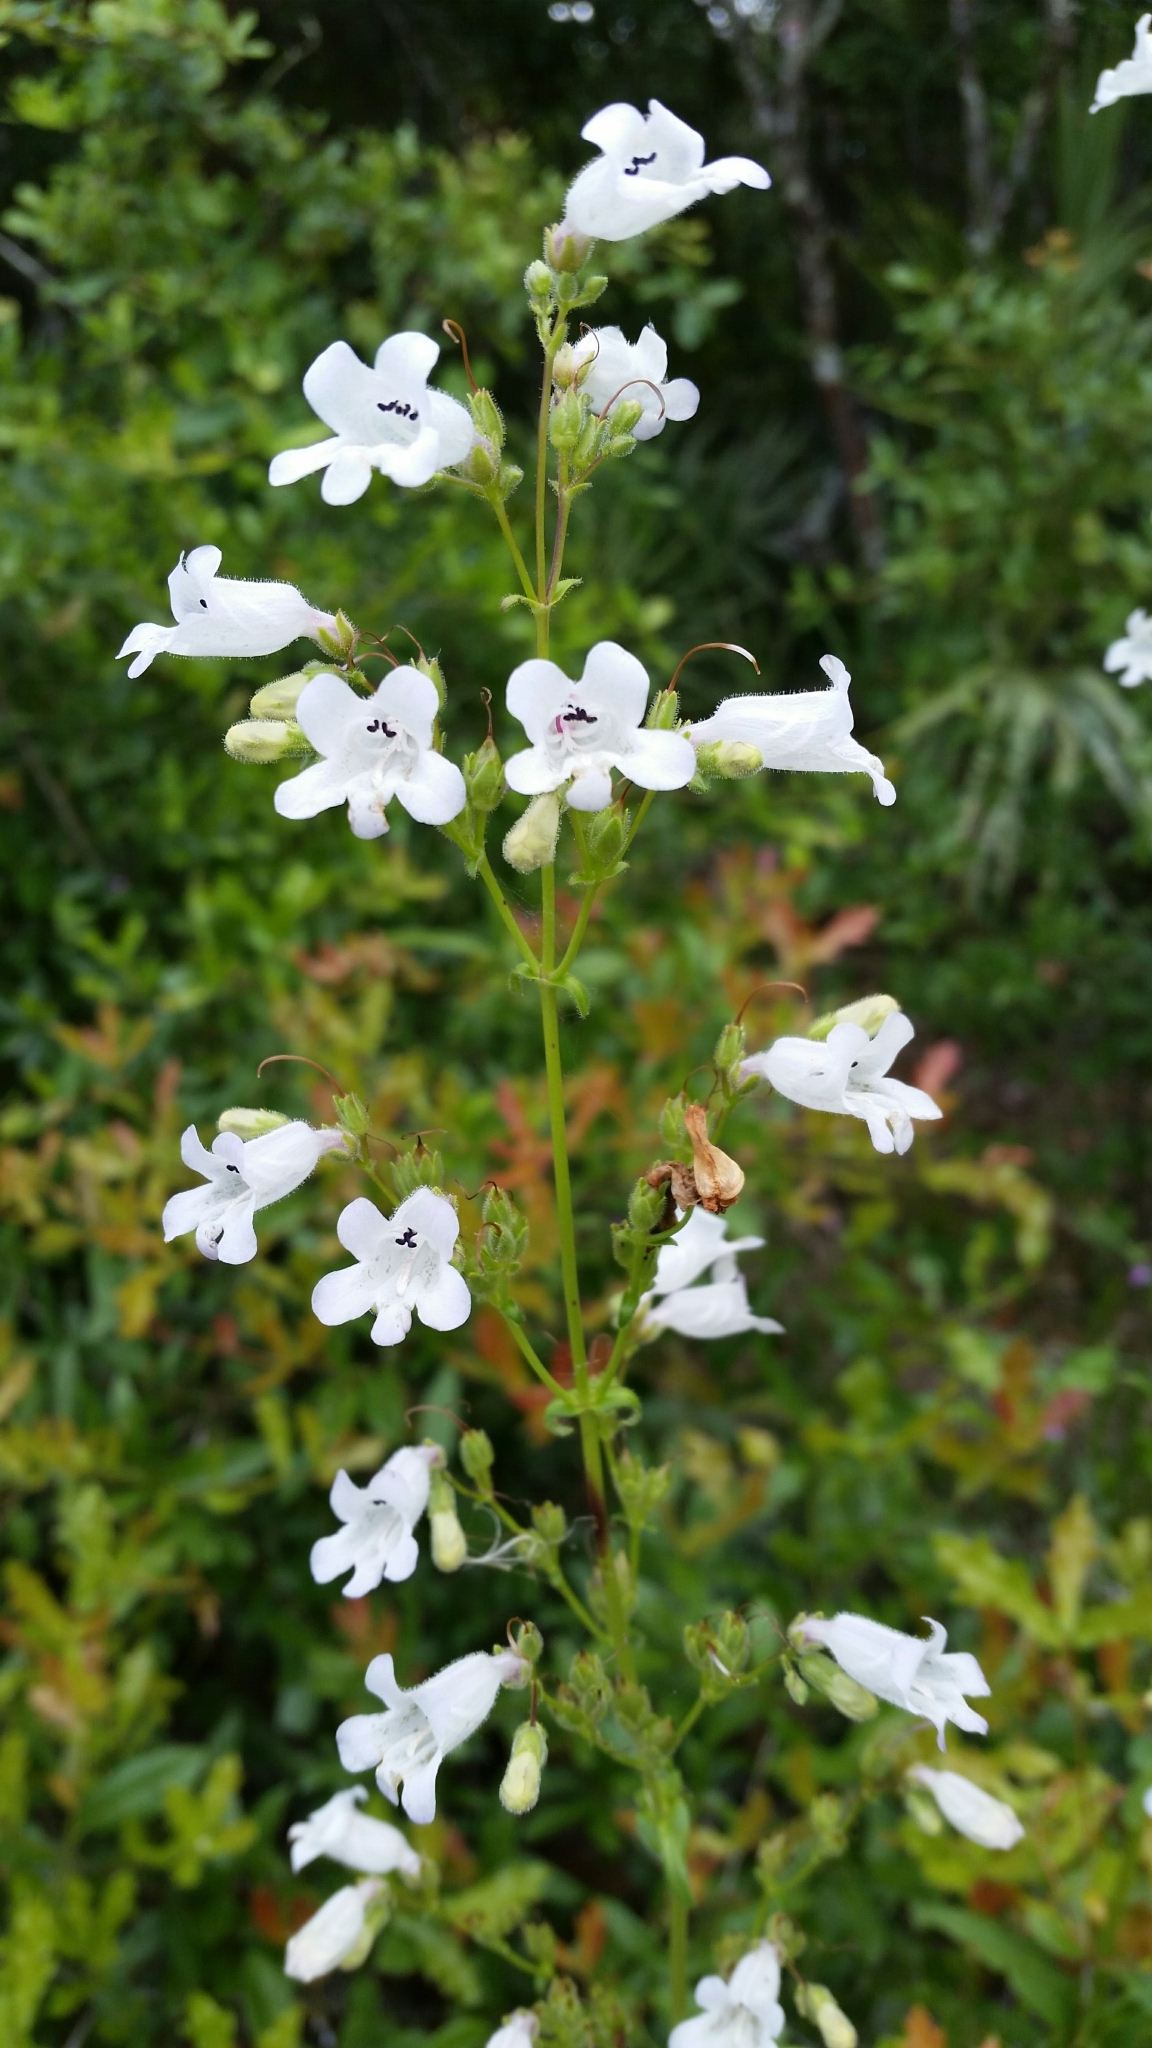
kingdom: Plantae
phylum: Tracheophyta
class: Magnoliopsida
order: Lamiales
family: Plantaginaceae
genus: Penstemon
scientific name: Penstemon multiflorus
